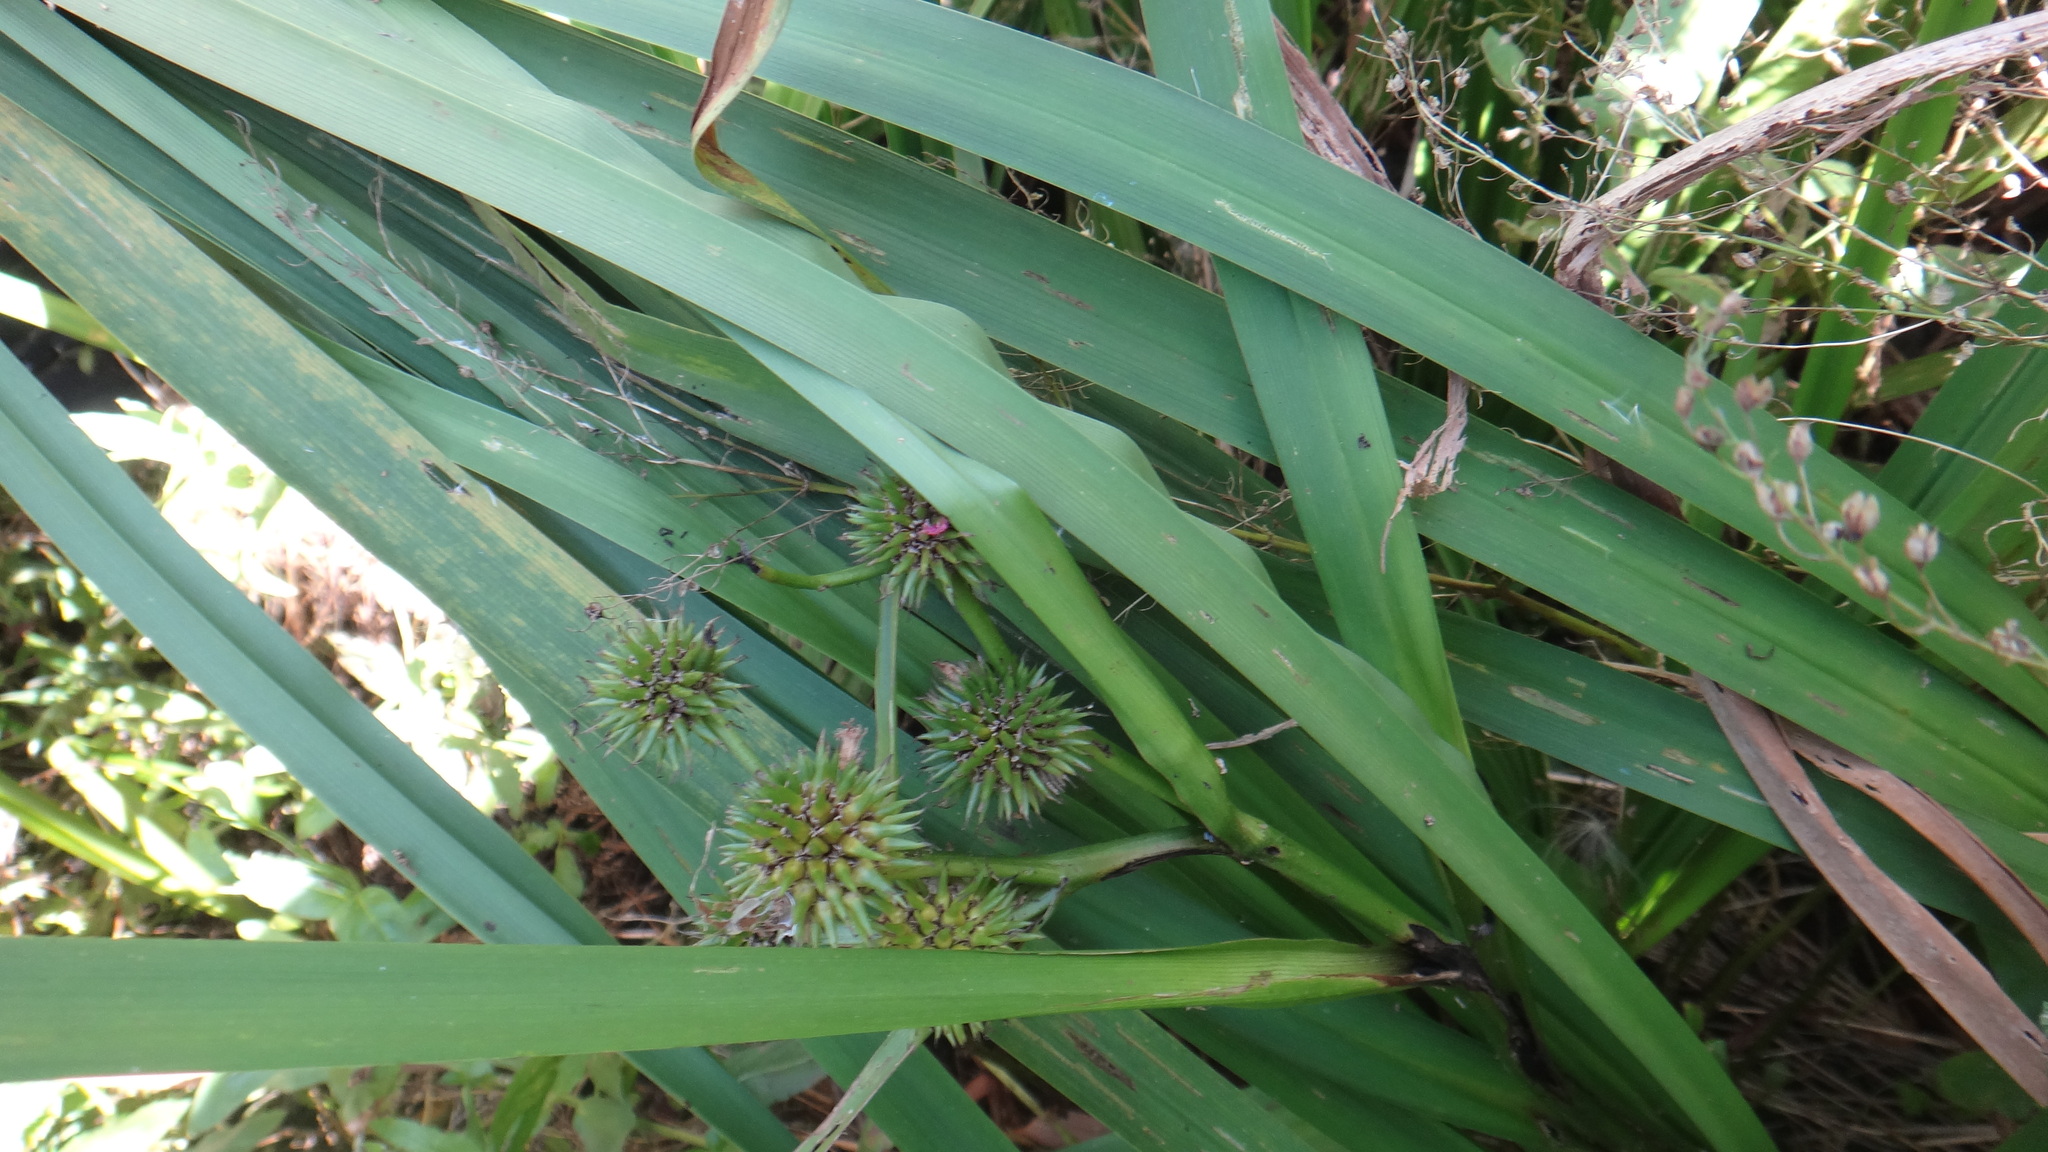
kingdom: Plantae
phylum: Tracheophyta
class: Liliopsida
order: Poales
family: Typhaceae
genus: Sparganium
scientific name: Sparganium erectum
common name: Branched bur-reed
